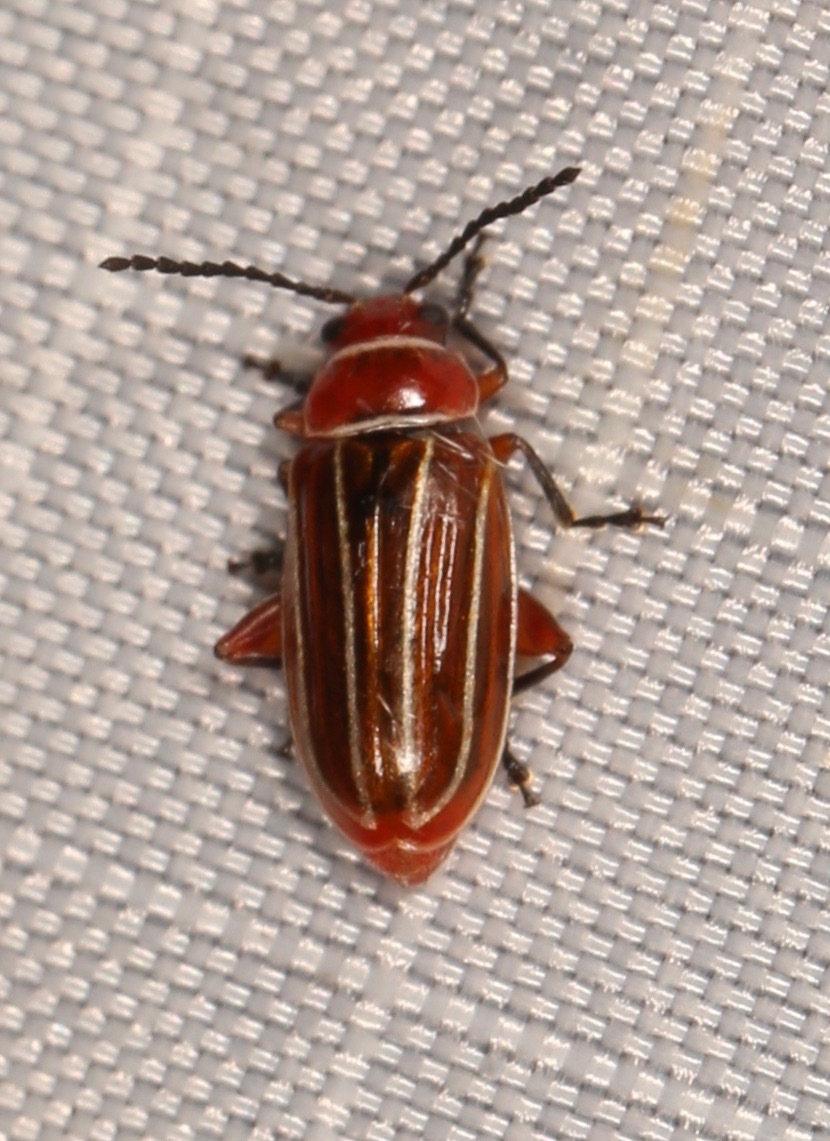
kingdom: Animalia
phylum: Arthropoda
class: Insecta
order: Coleoptera
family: Chrysomelidae
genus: Disonycha
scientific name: Disonycha conjugata
